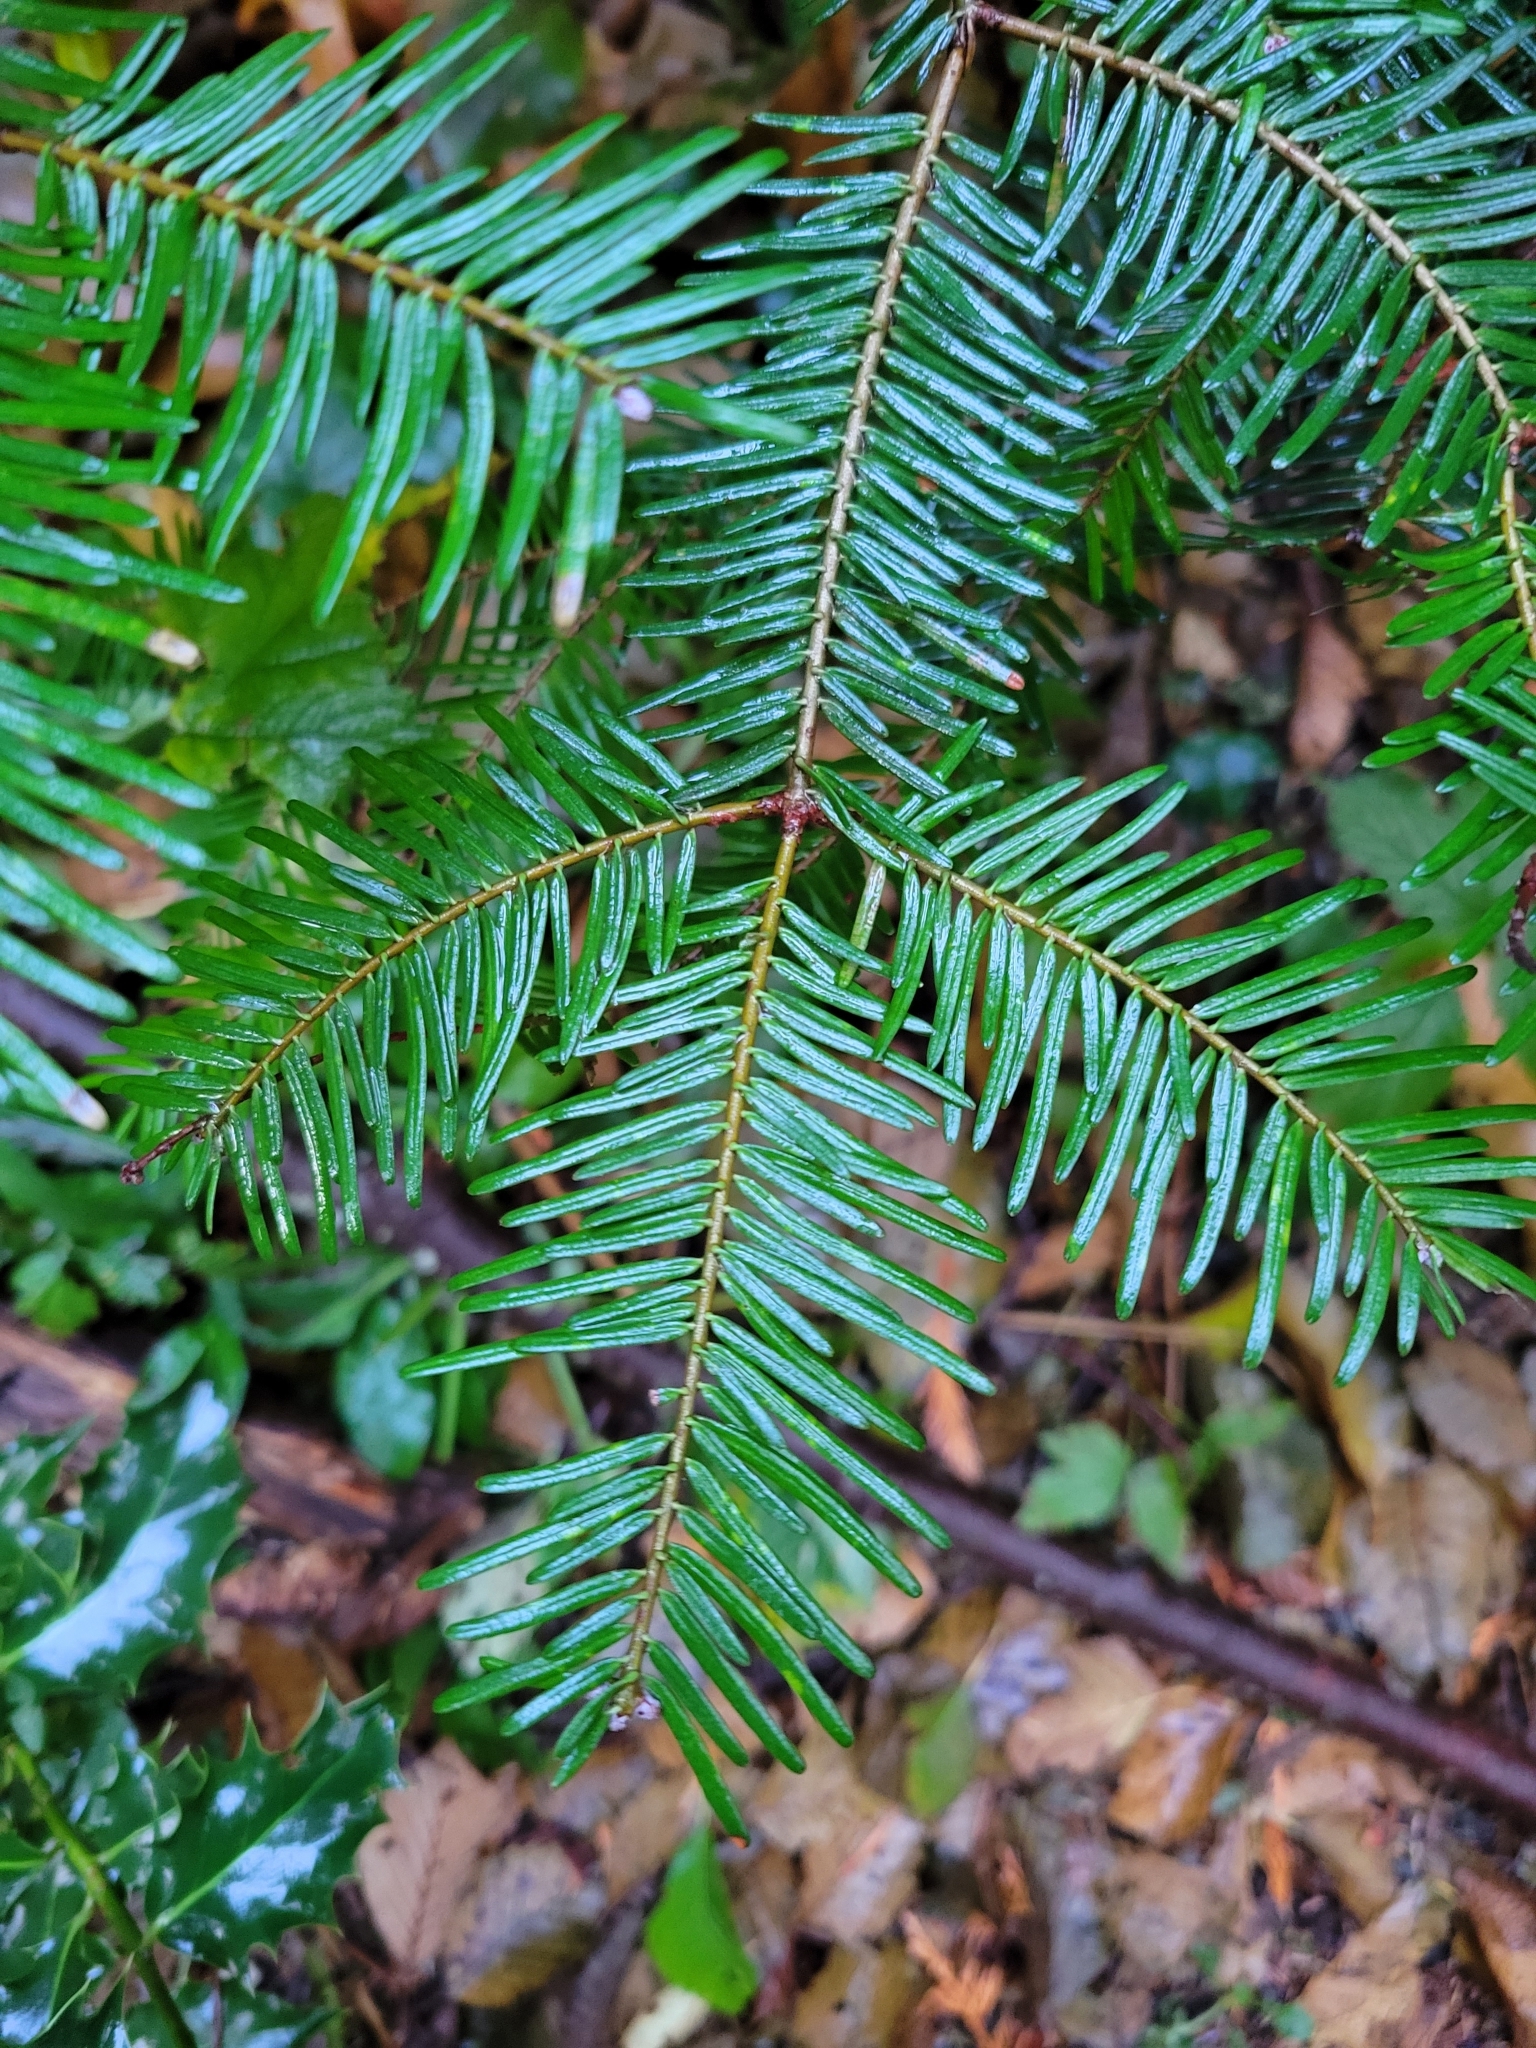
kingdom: Plantae
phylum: Tracheophyta
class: Pinopsida
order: Pinales
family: Pinaceae
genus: Abies
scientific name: Abies grandis
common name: Giant fir
